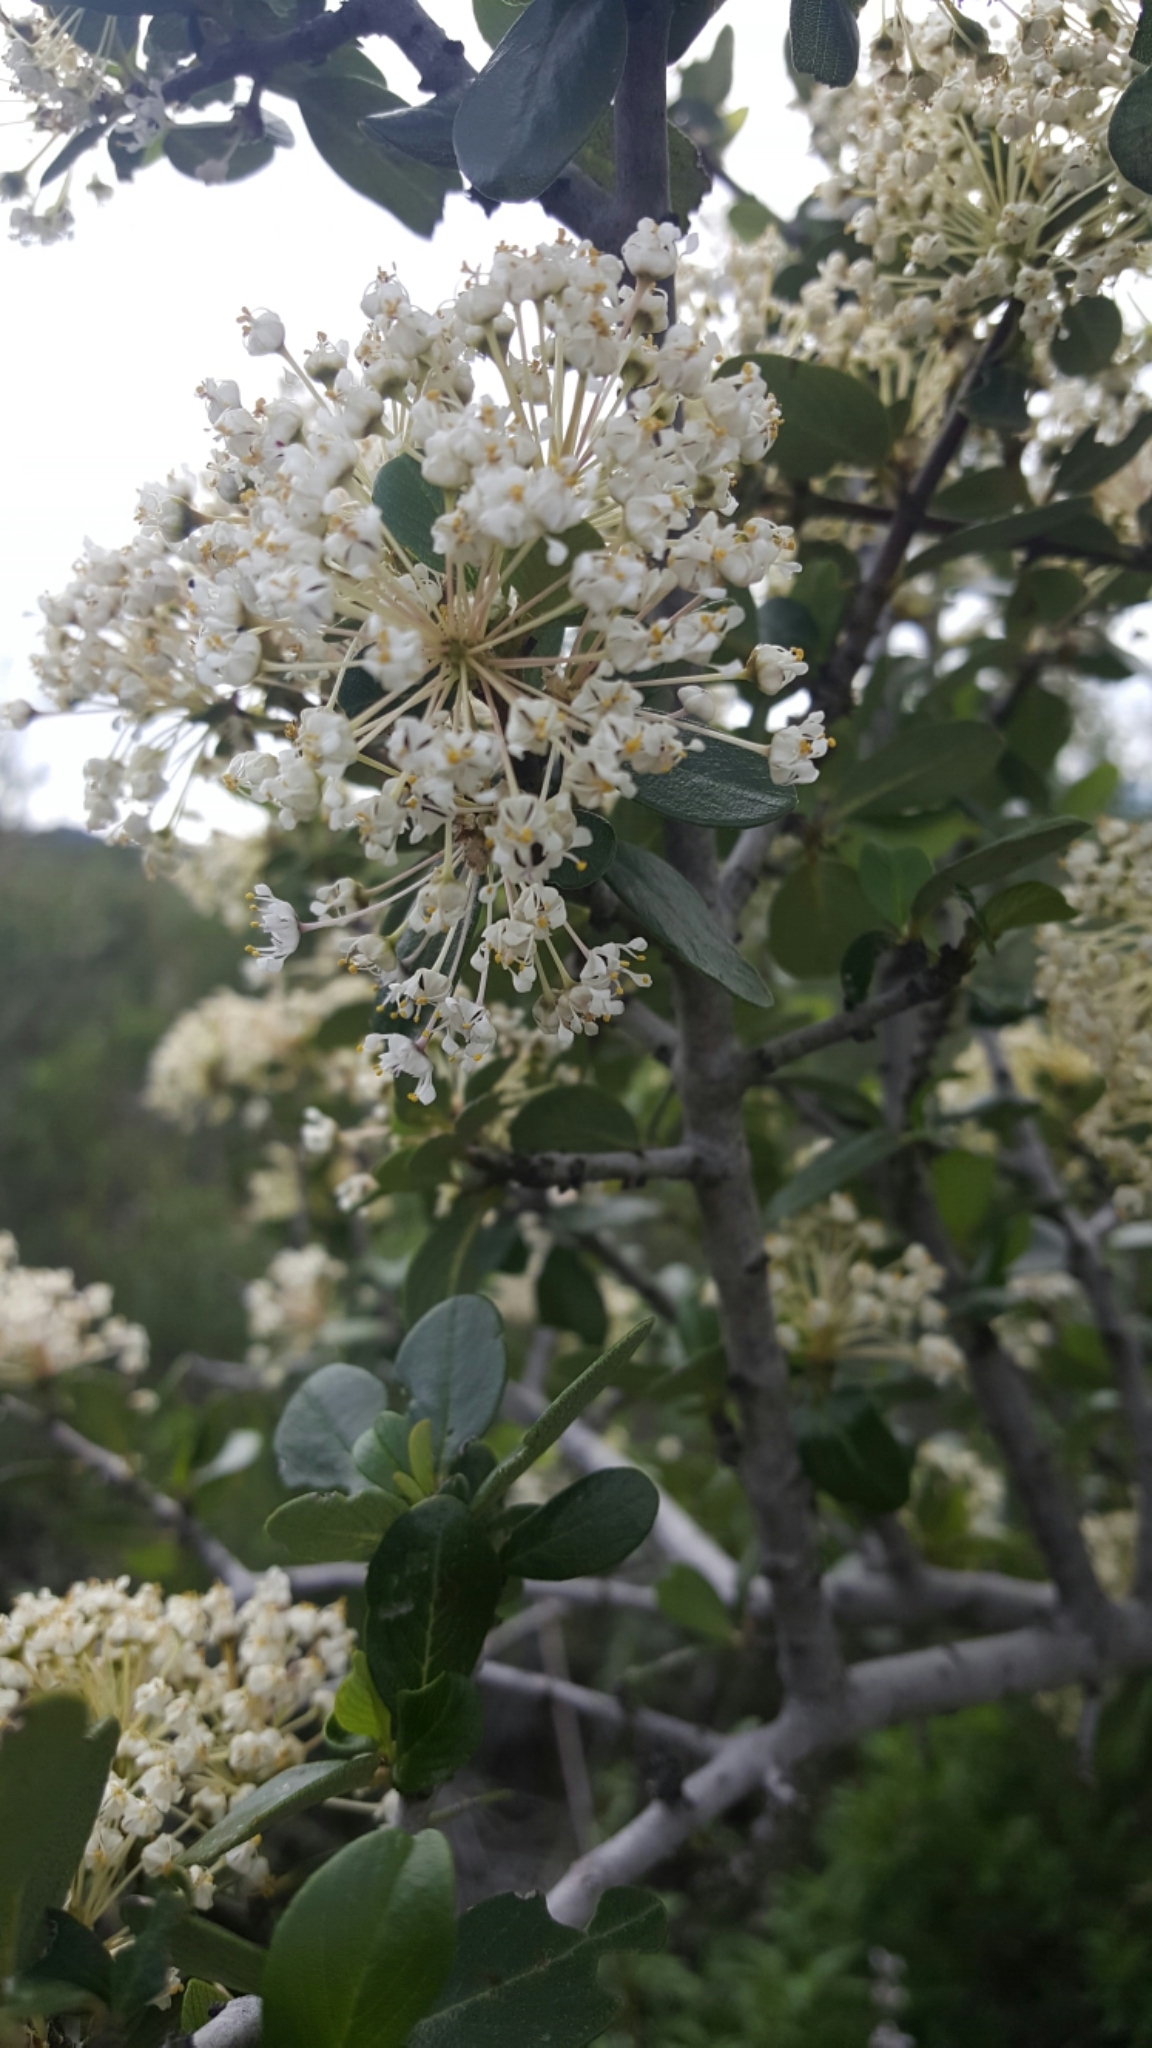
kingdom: Plantae
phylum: Tracheophyta
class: Magnoliopsida
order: Rosales
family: Rhamnaceae
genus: Ceanothus
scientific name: Ceanothus cuneatus
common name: Cuneate ceanothus
